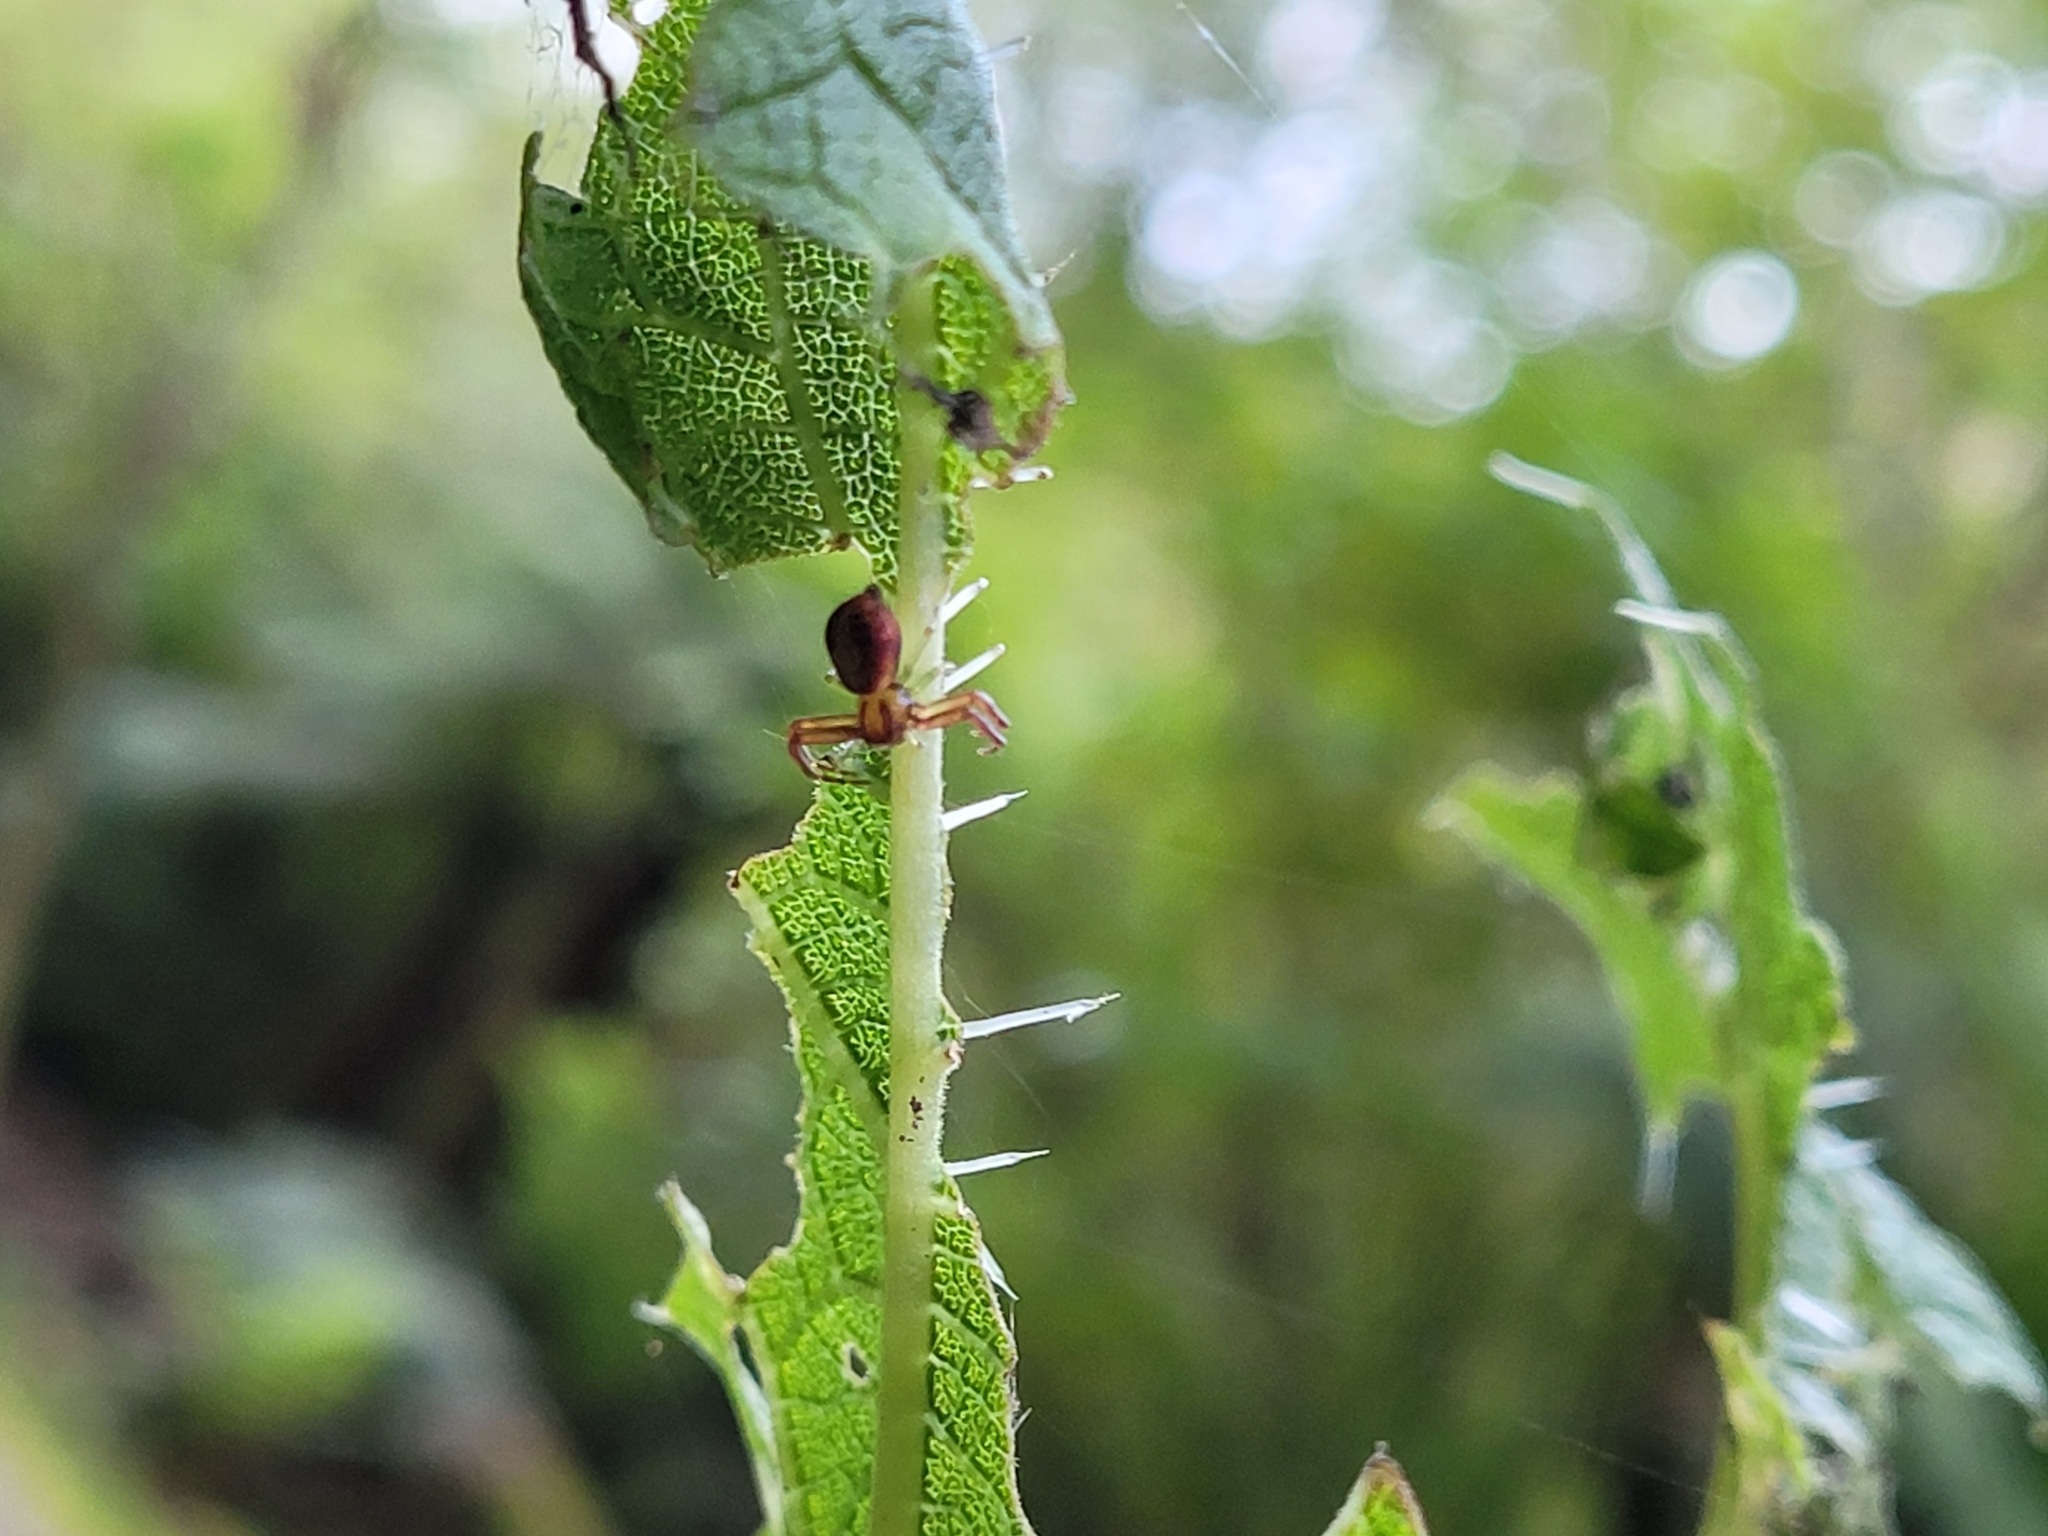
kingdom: Animalia
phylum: Arthropoda
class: Arachnida
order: Araneae
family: Thomisidae
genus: Diaea
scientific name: Diaea ambara
